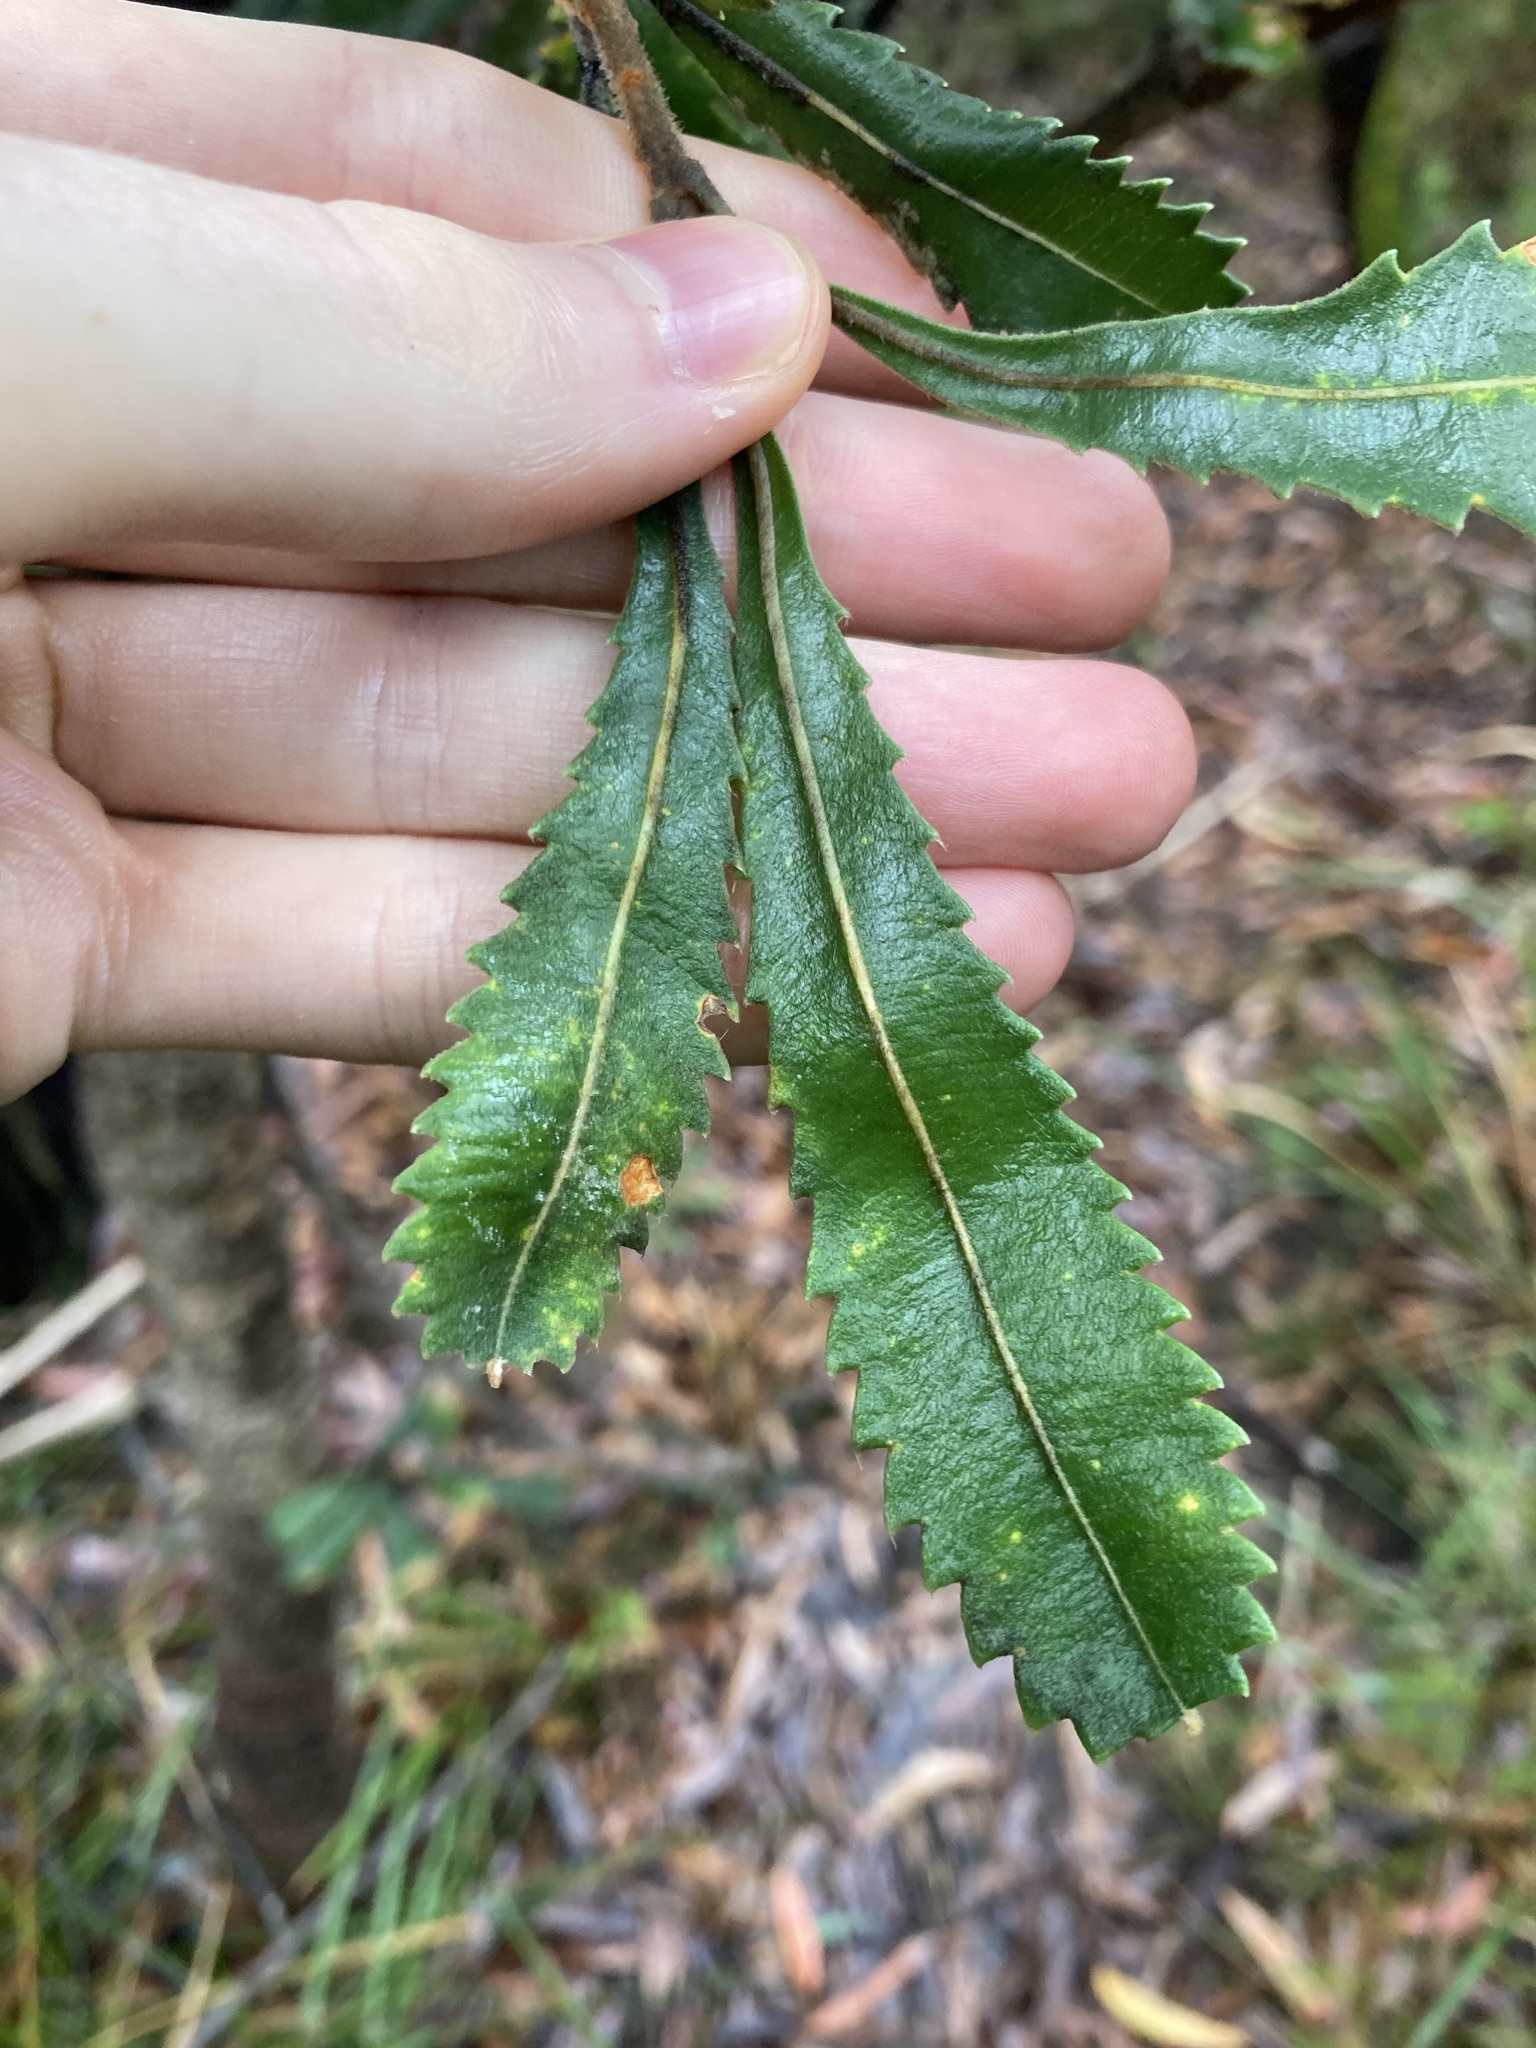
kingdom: Plantae
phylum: Tracheophyta
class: Magnoliopsida
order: Proteales
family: Proteaceae
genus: Banksia
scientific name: Banksia serrata
